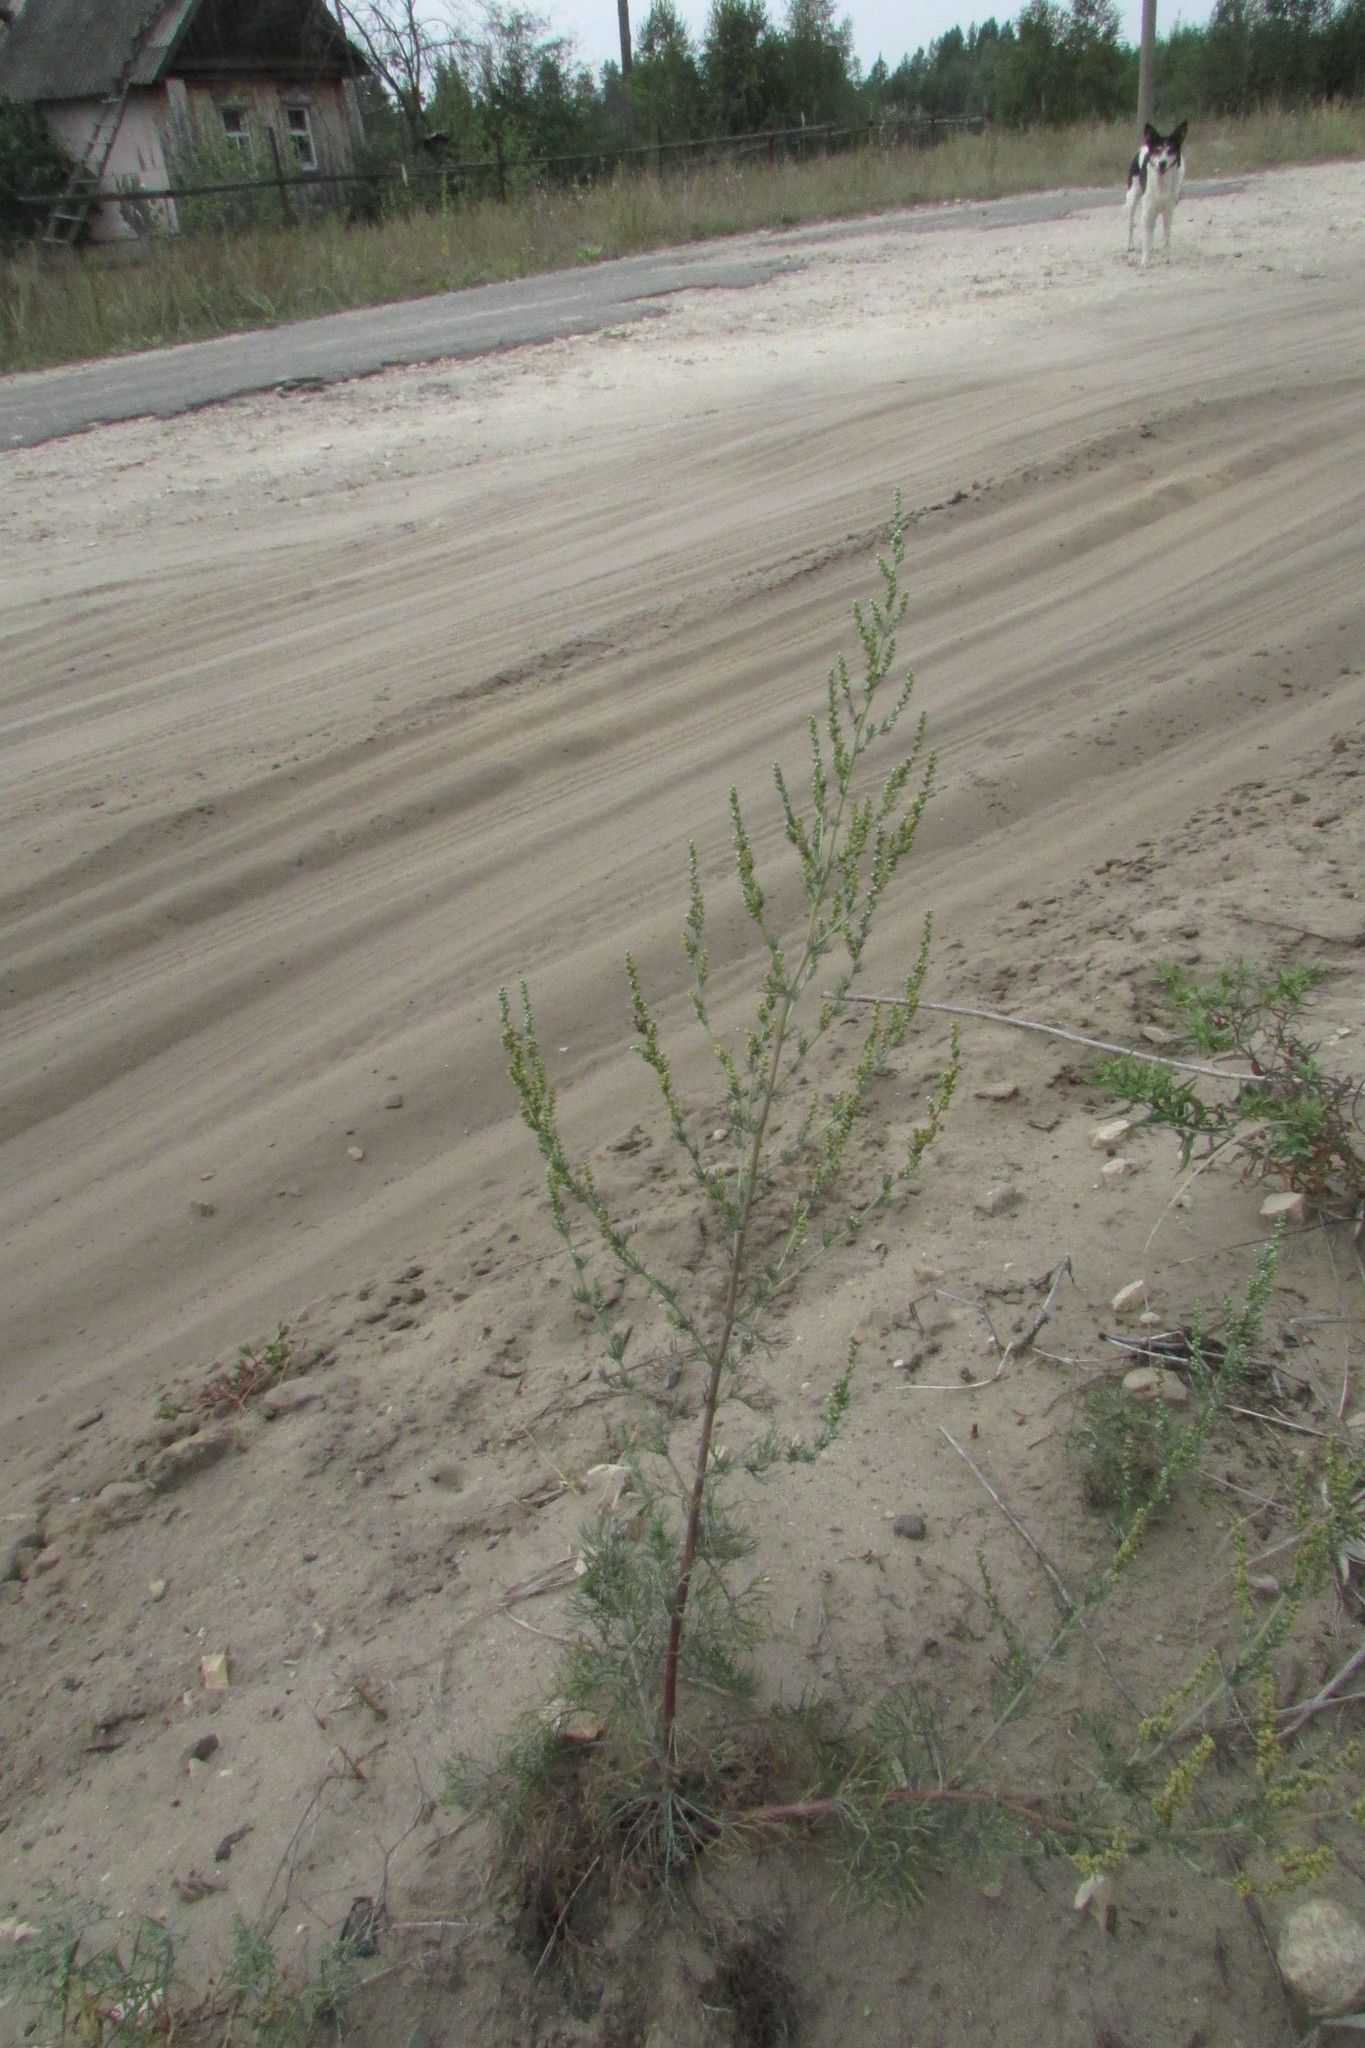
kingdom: Plantae
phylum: Tracheophyta
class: Magnoliopsida
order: Asterales
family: Asteraceae
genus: Artemisia
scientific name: Artemisia campestris
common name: Field wormwood
